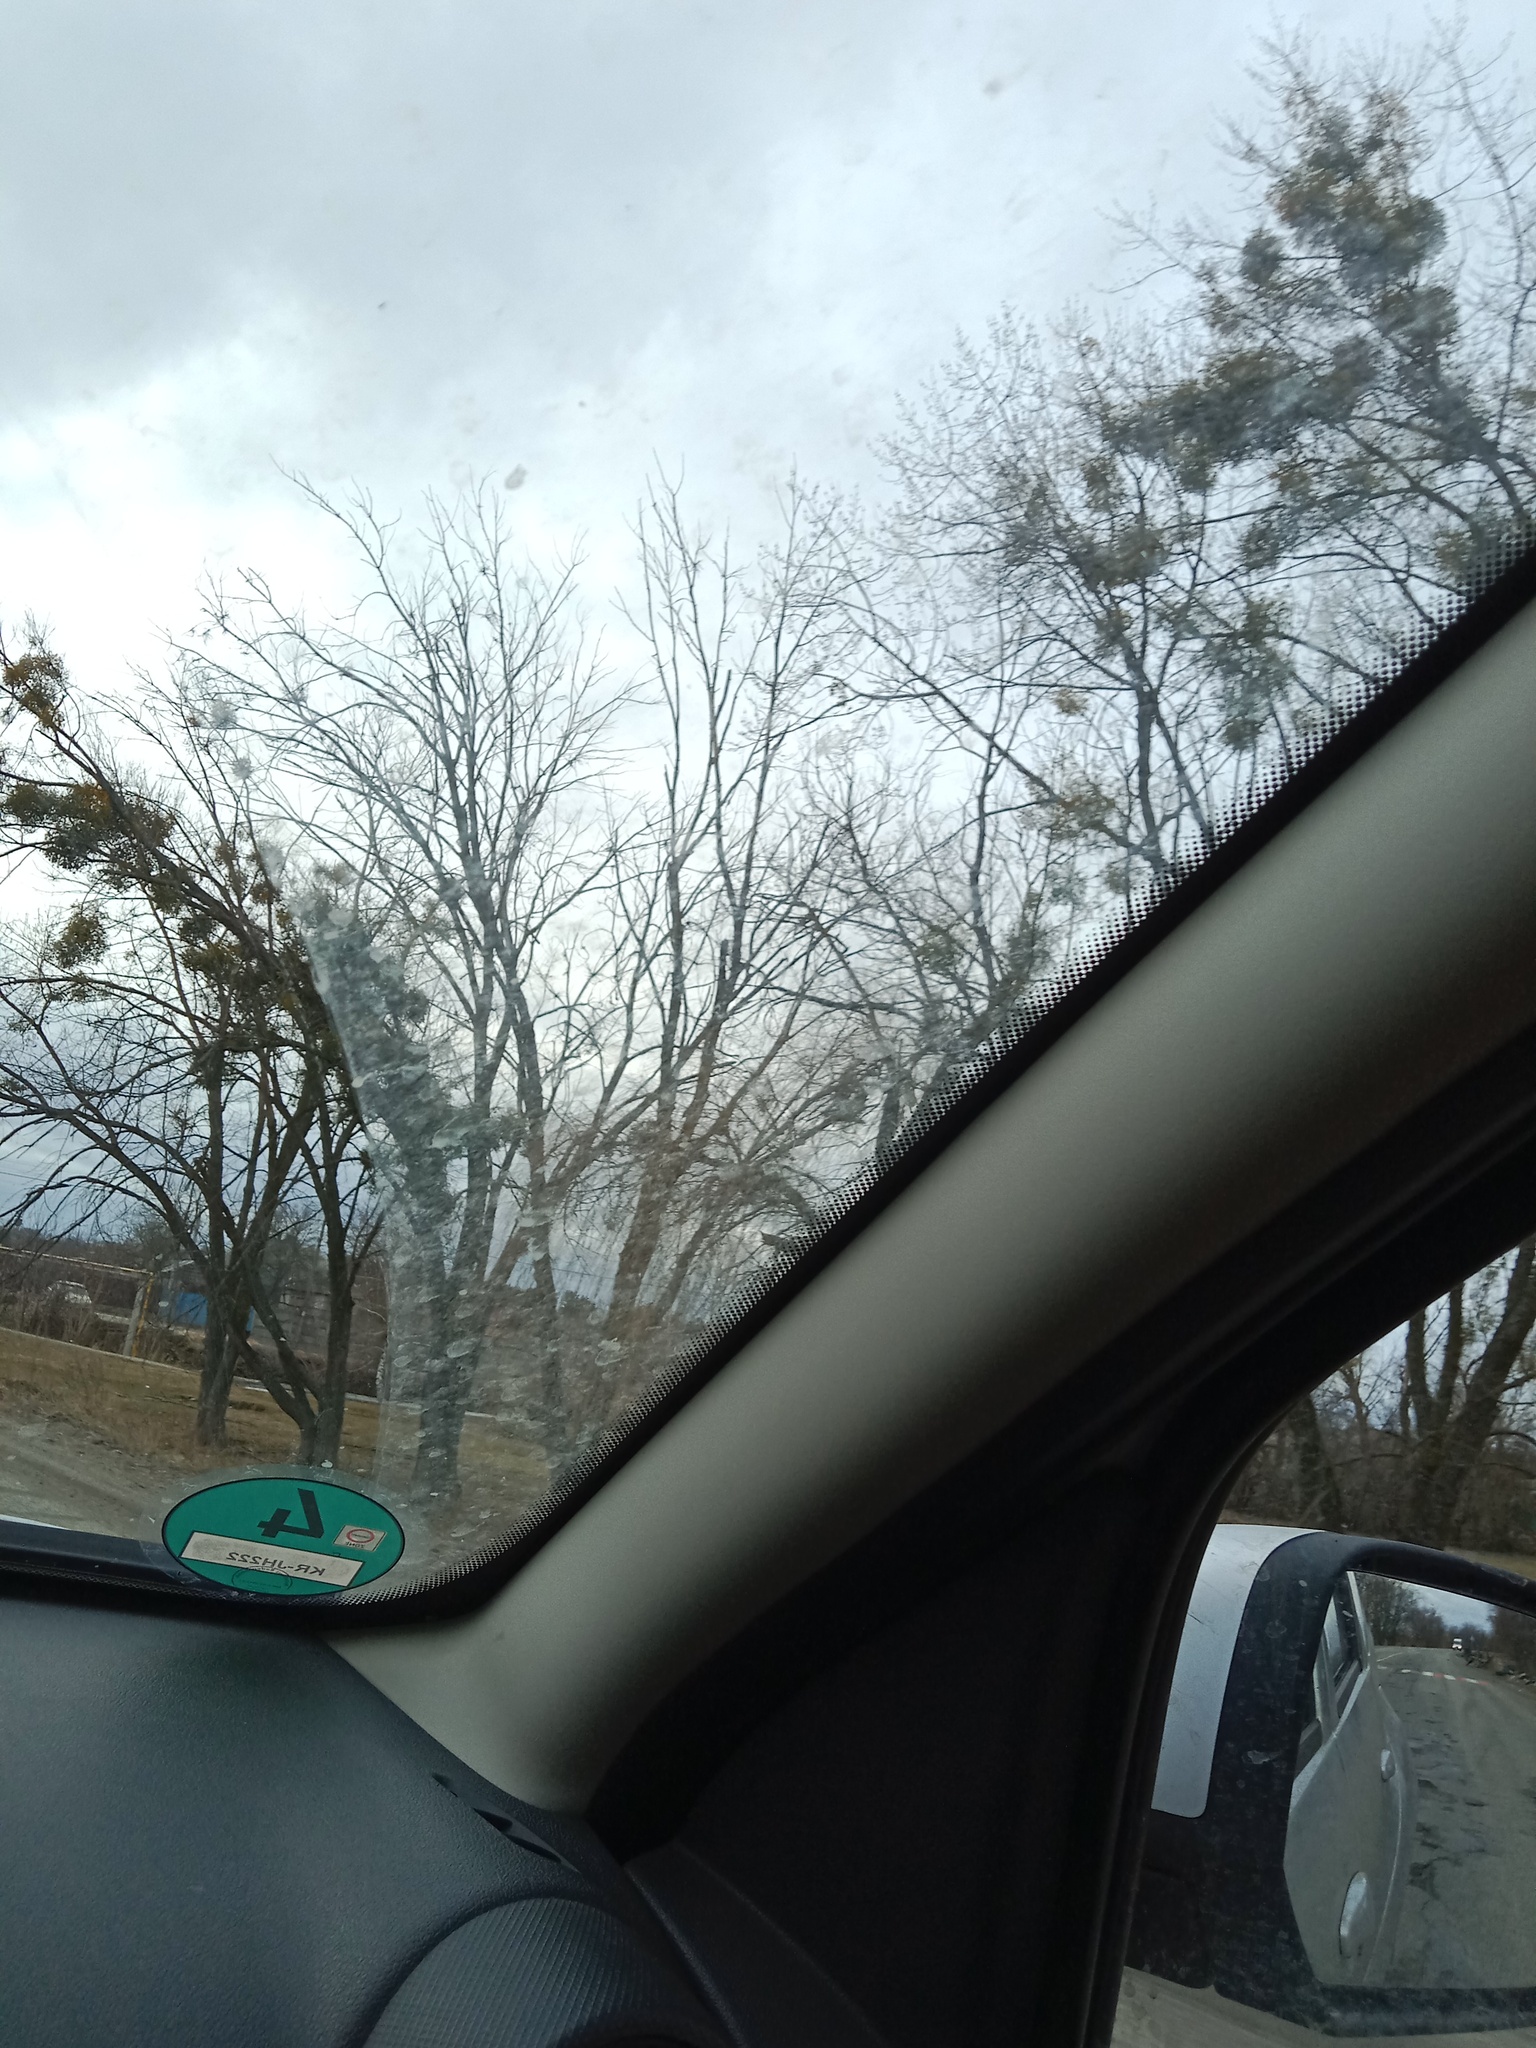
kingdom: Plantae
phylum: Tracheophyta
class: Magnoliopsida
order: Santalales
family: Viscaceae
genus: Viscum
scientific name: Viscum album
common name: Mistletoe
